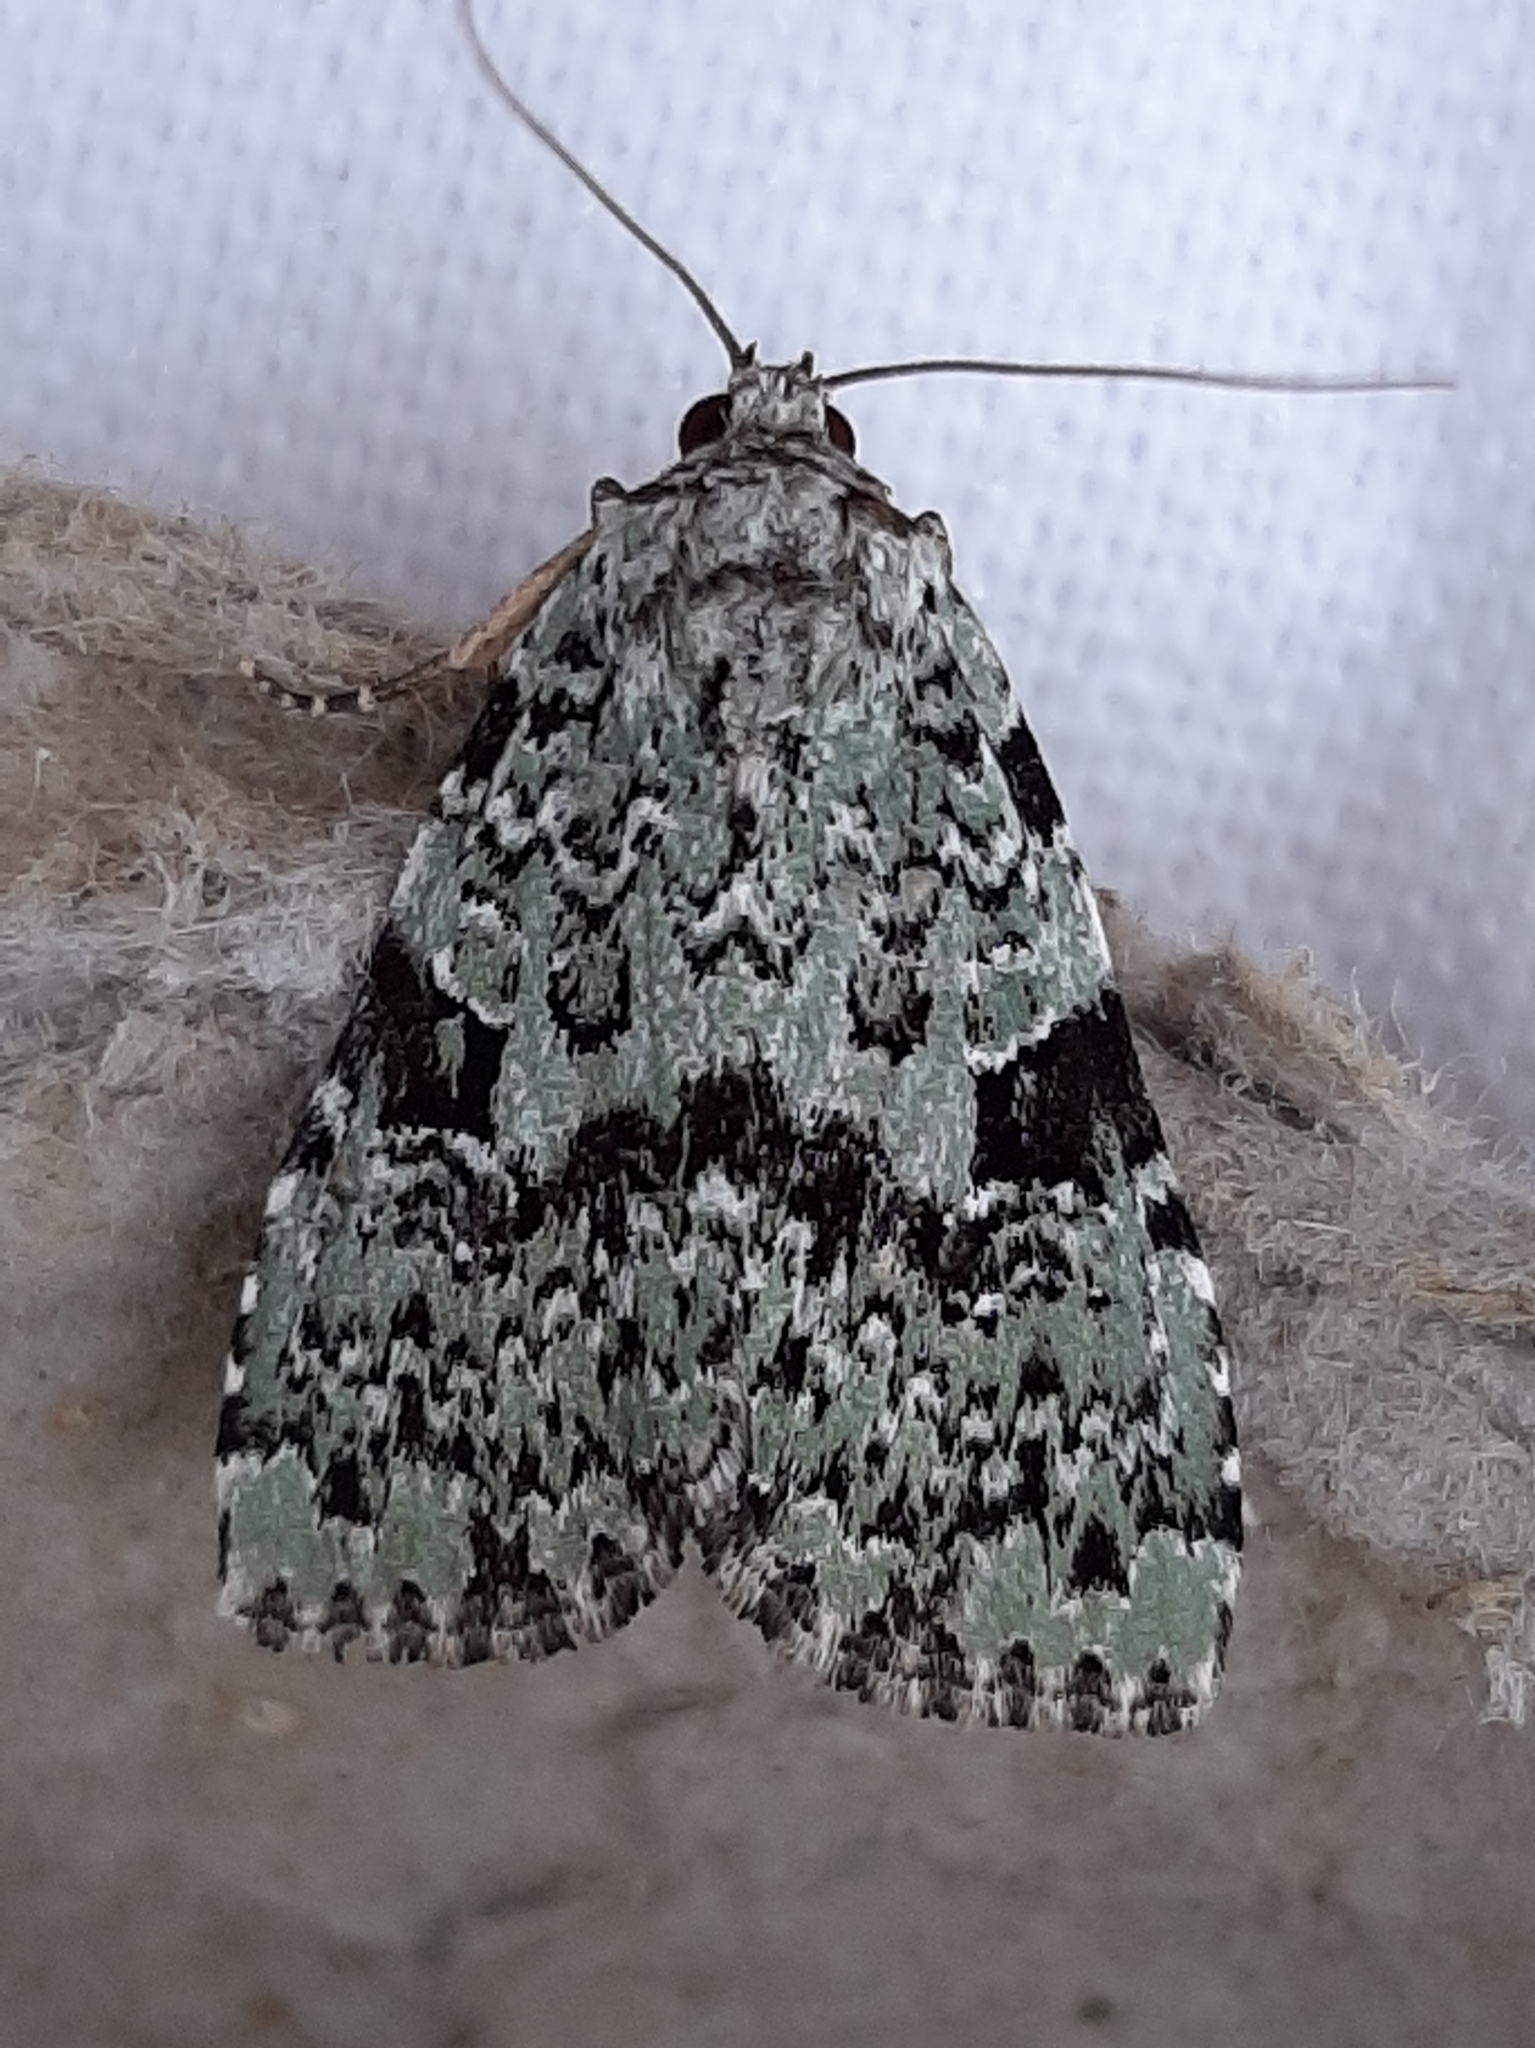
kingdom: Animalia
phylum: Arthropoda
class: Insecta
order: Lepidoptera
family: Noctuidae
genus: Leuconycta
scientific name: Leuconycta diphteroides
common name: Green leuconycta moth
